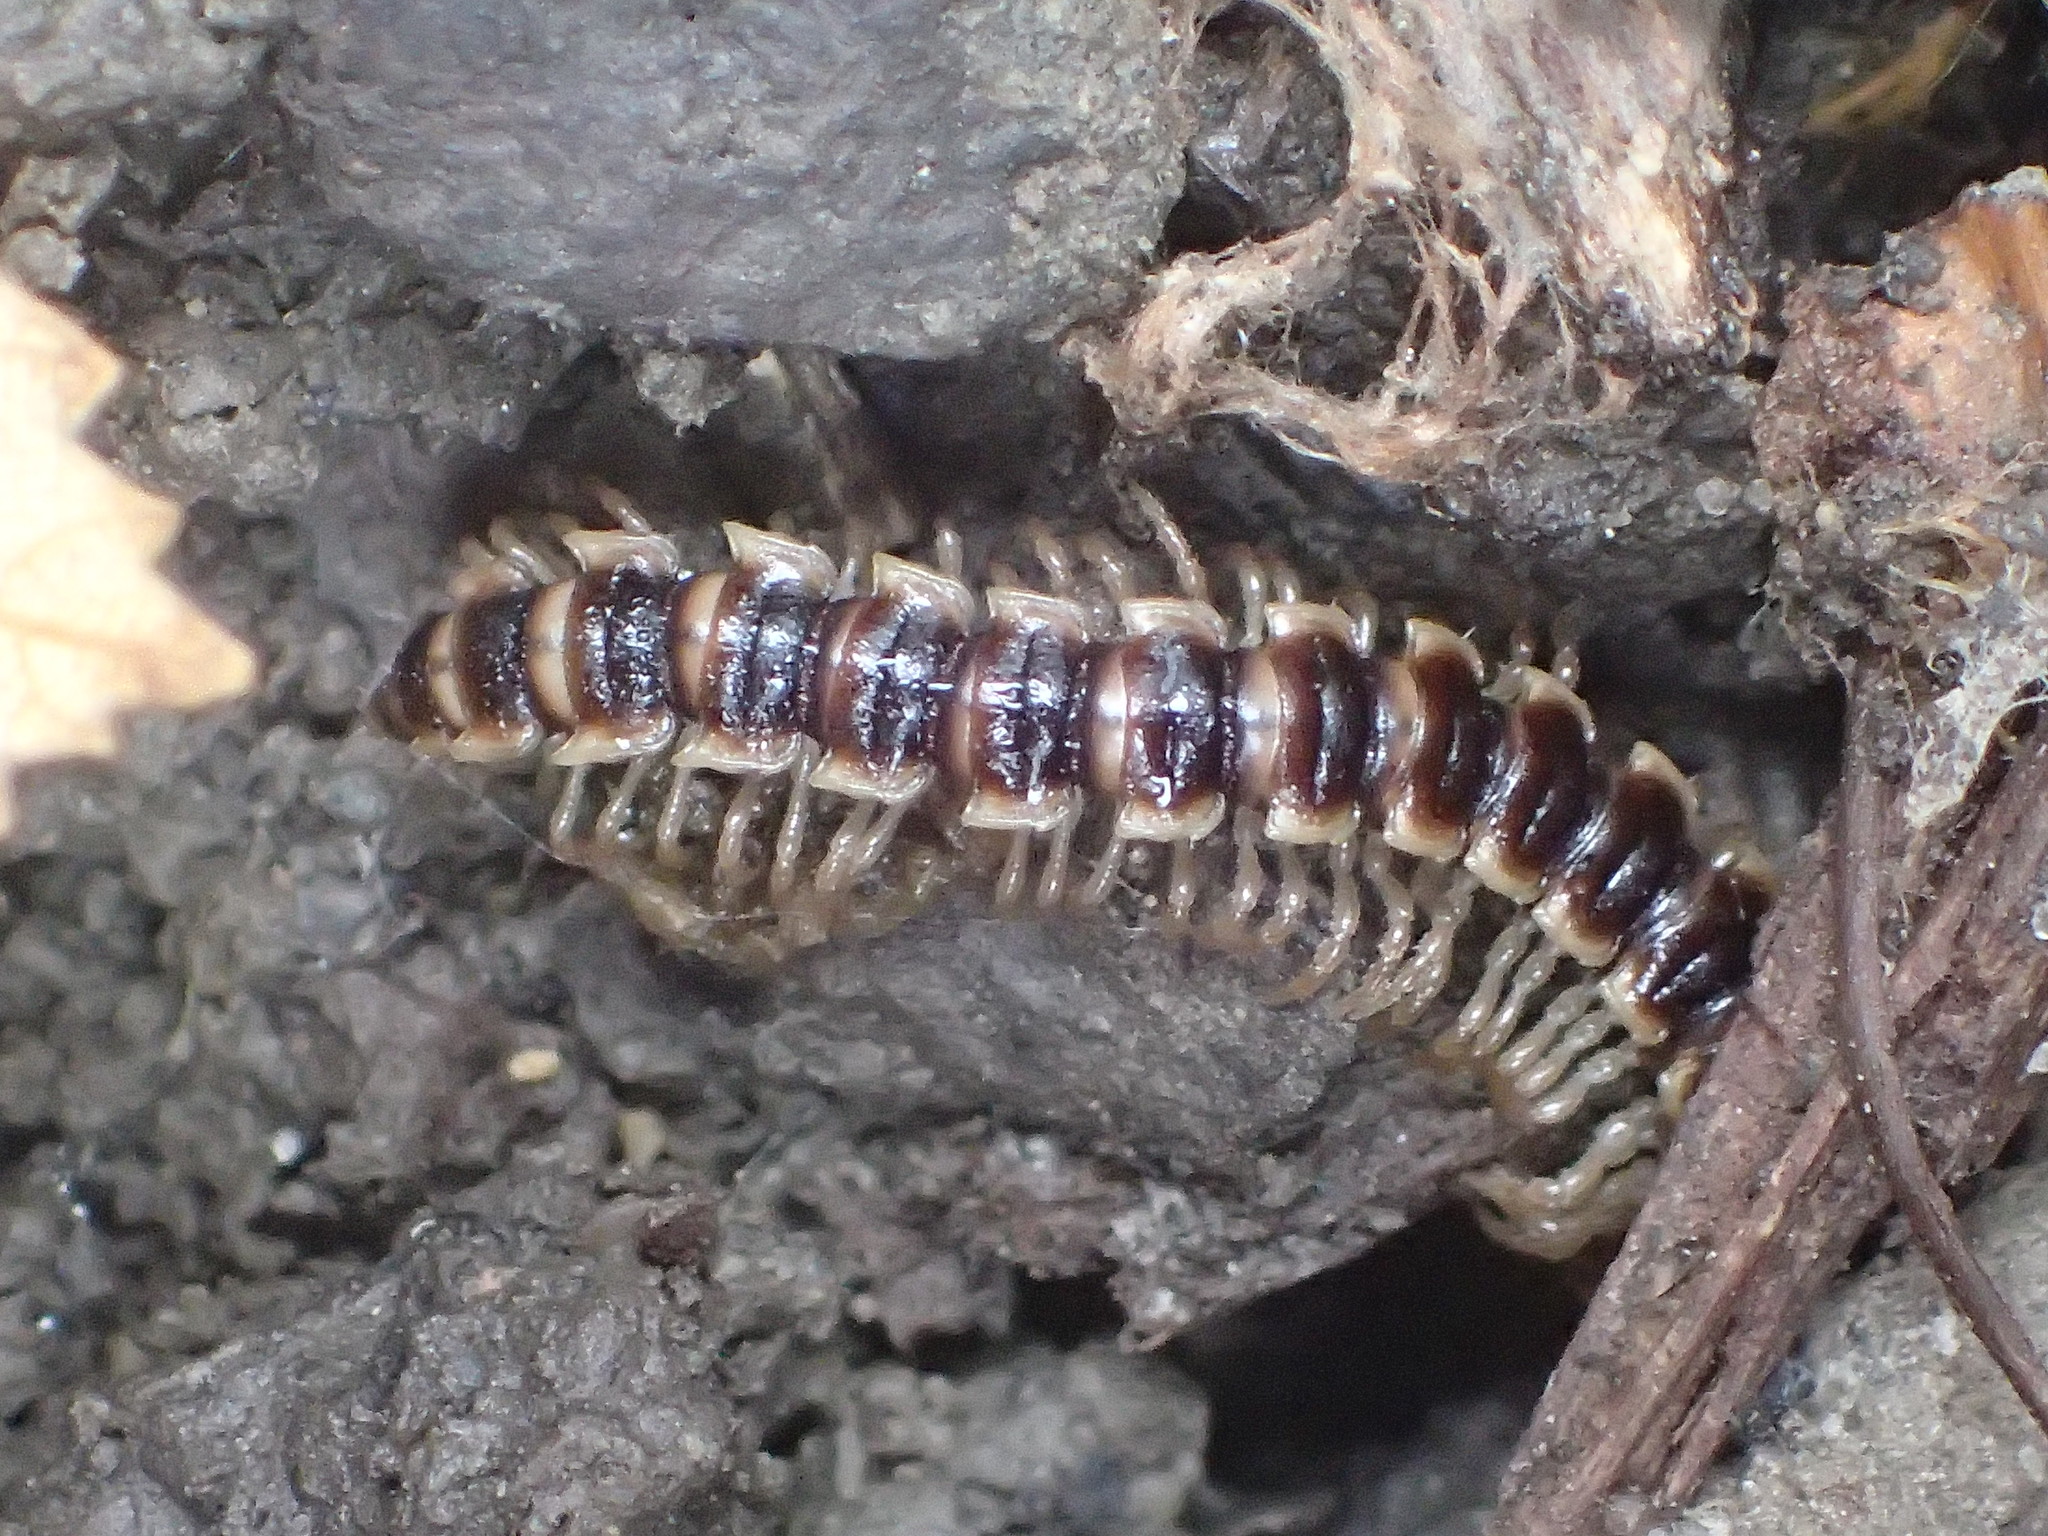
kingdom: Animalia
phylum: Arthropoda
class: Diplopoda
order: Polydesmida
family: Paradoxosomatidae
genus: Oxidus
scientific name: Oxidus gracilis
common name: Greenhouse millipede
